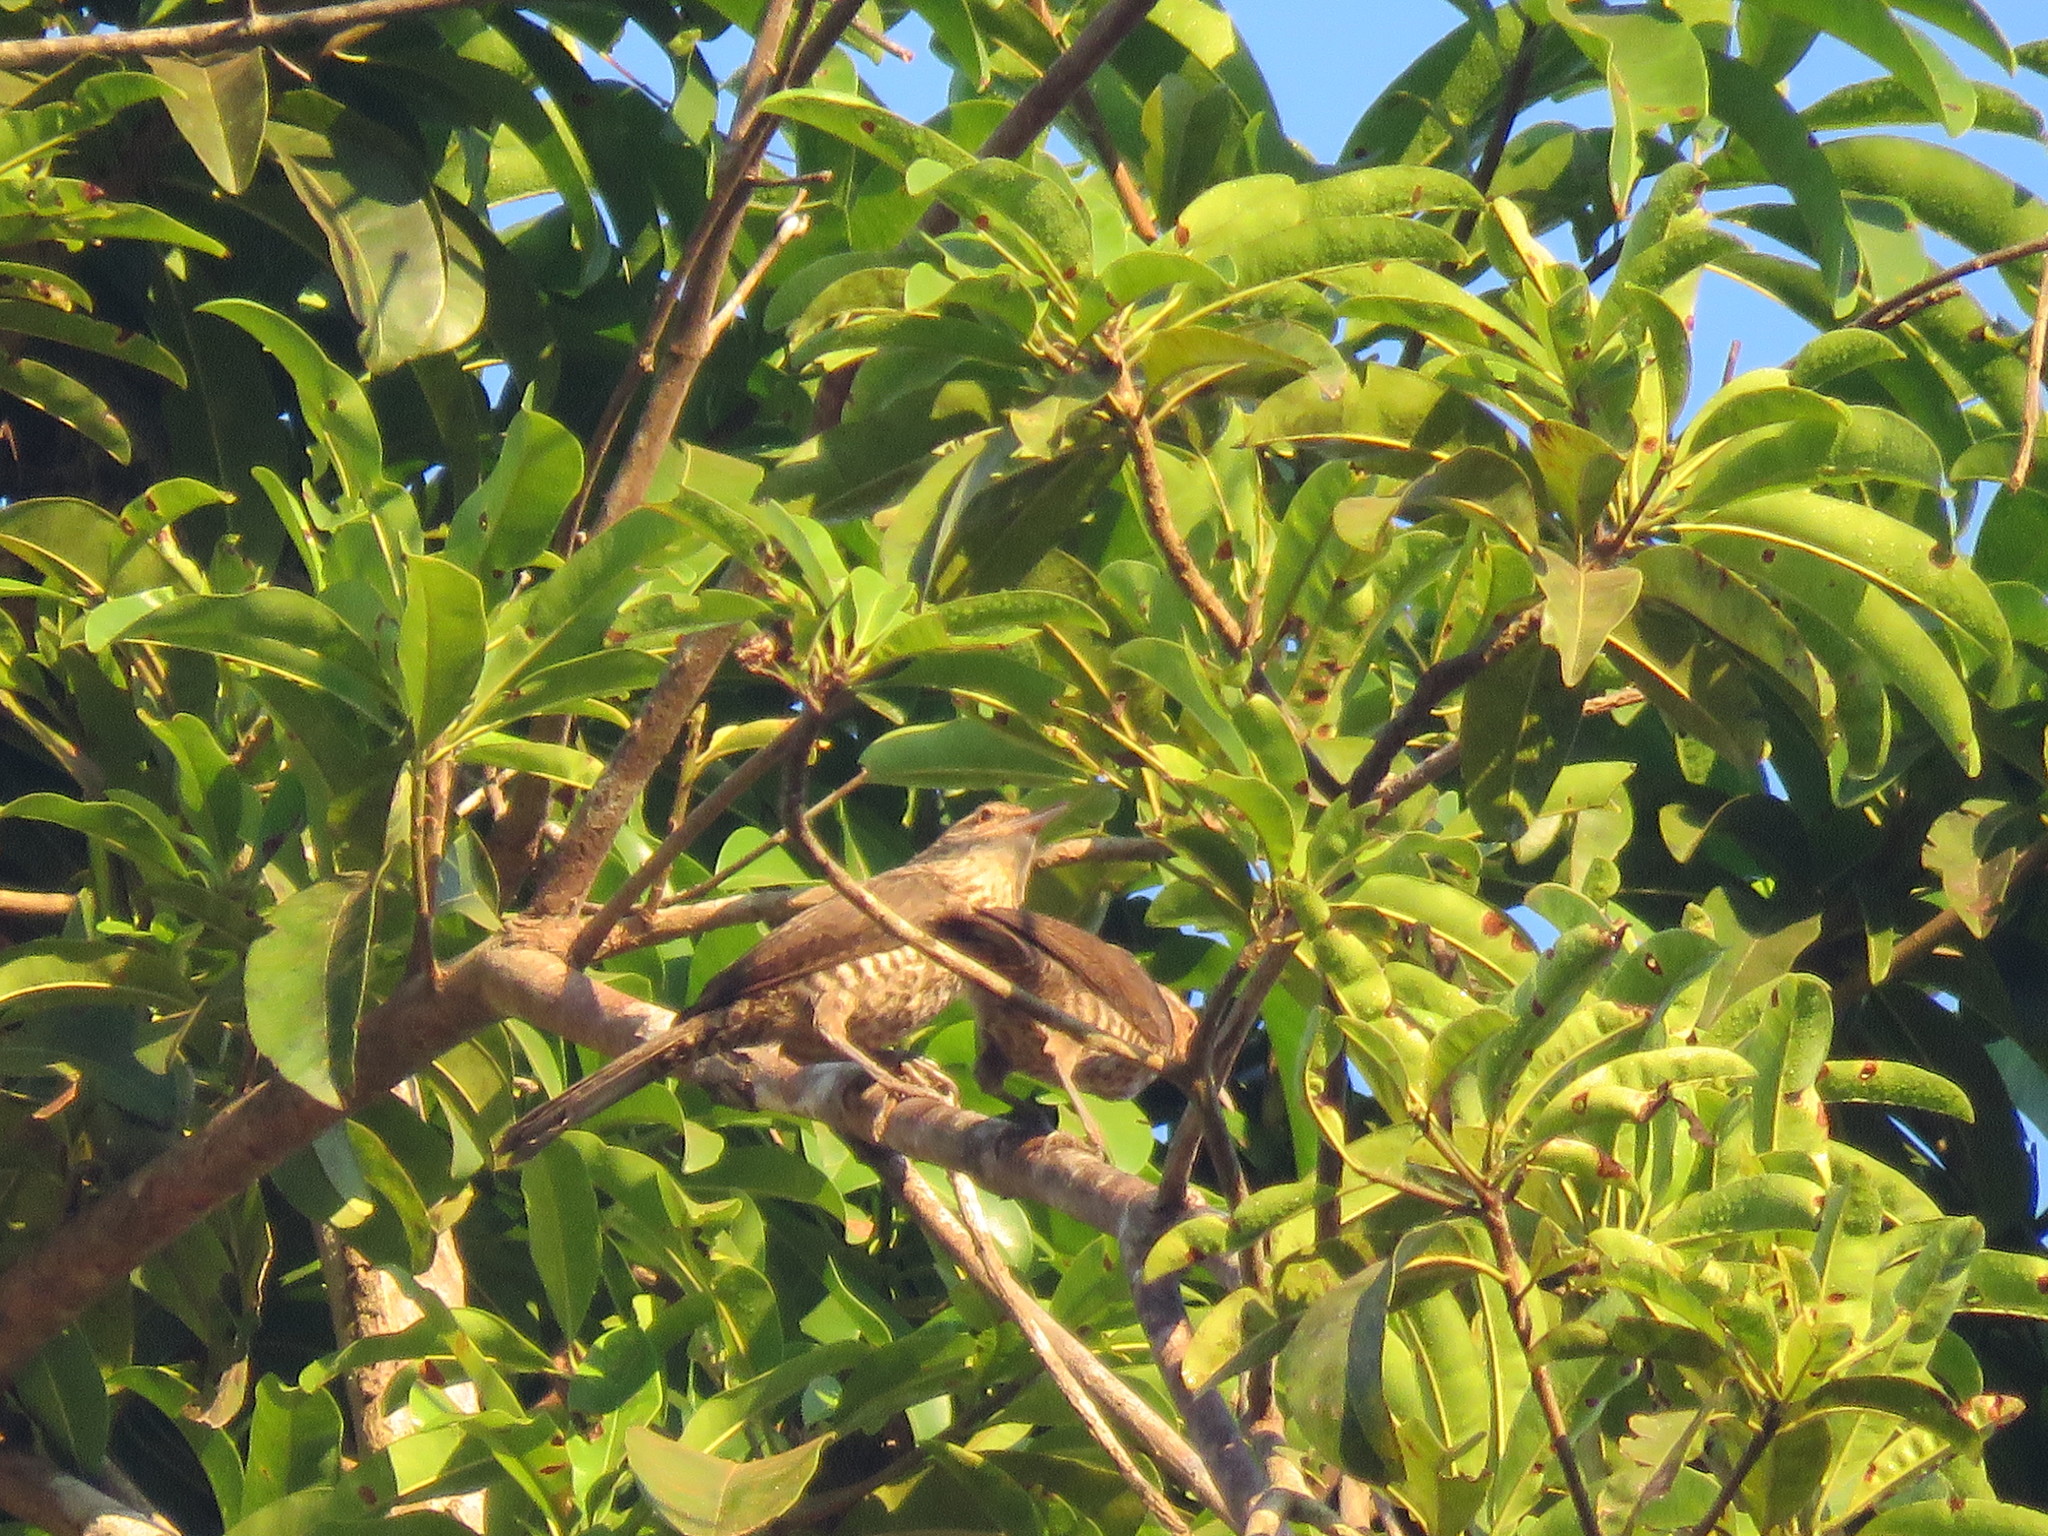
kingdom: Animalia
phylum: Chordata
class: Aves
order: Passeriformes
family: Troglodytidae
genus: Campylorhynchus
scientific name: Campylorhynchus turdinus
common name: Thrush-like wren
